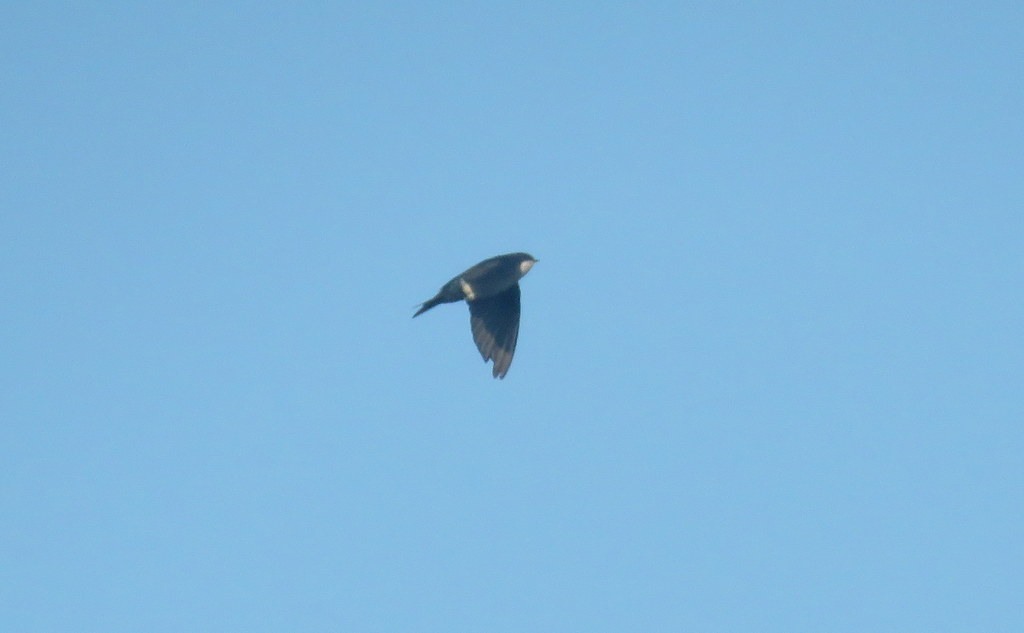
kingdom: Animalia
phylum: Chordata
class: Aves
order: Passeriformes
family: Hirundinidae
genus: Notiochelidon
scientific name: Notiochelidon cyanoleuca
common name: Blue-and-white swallow
